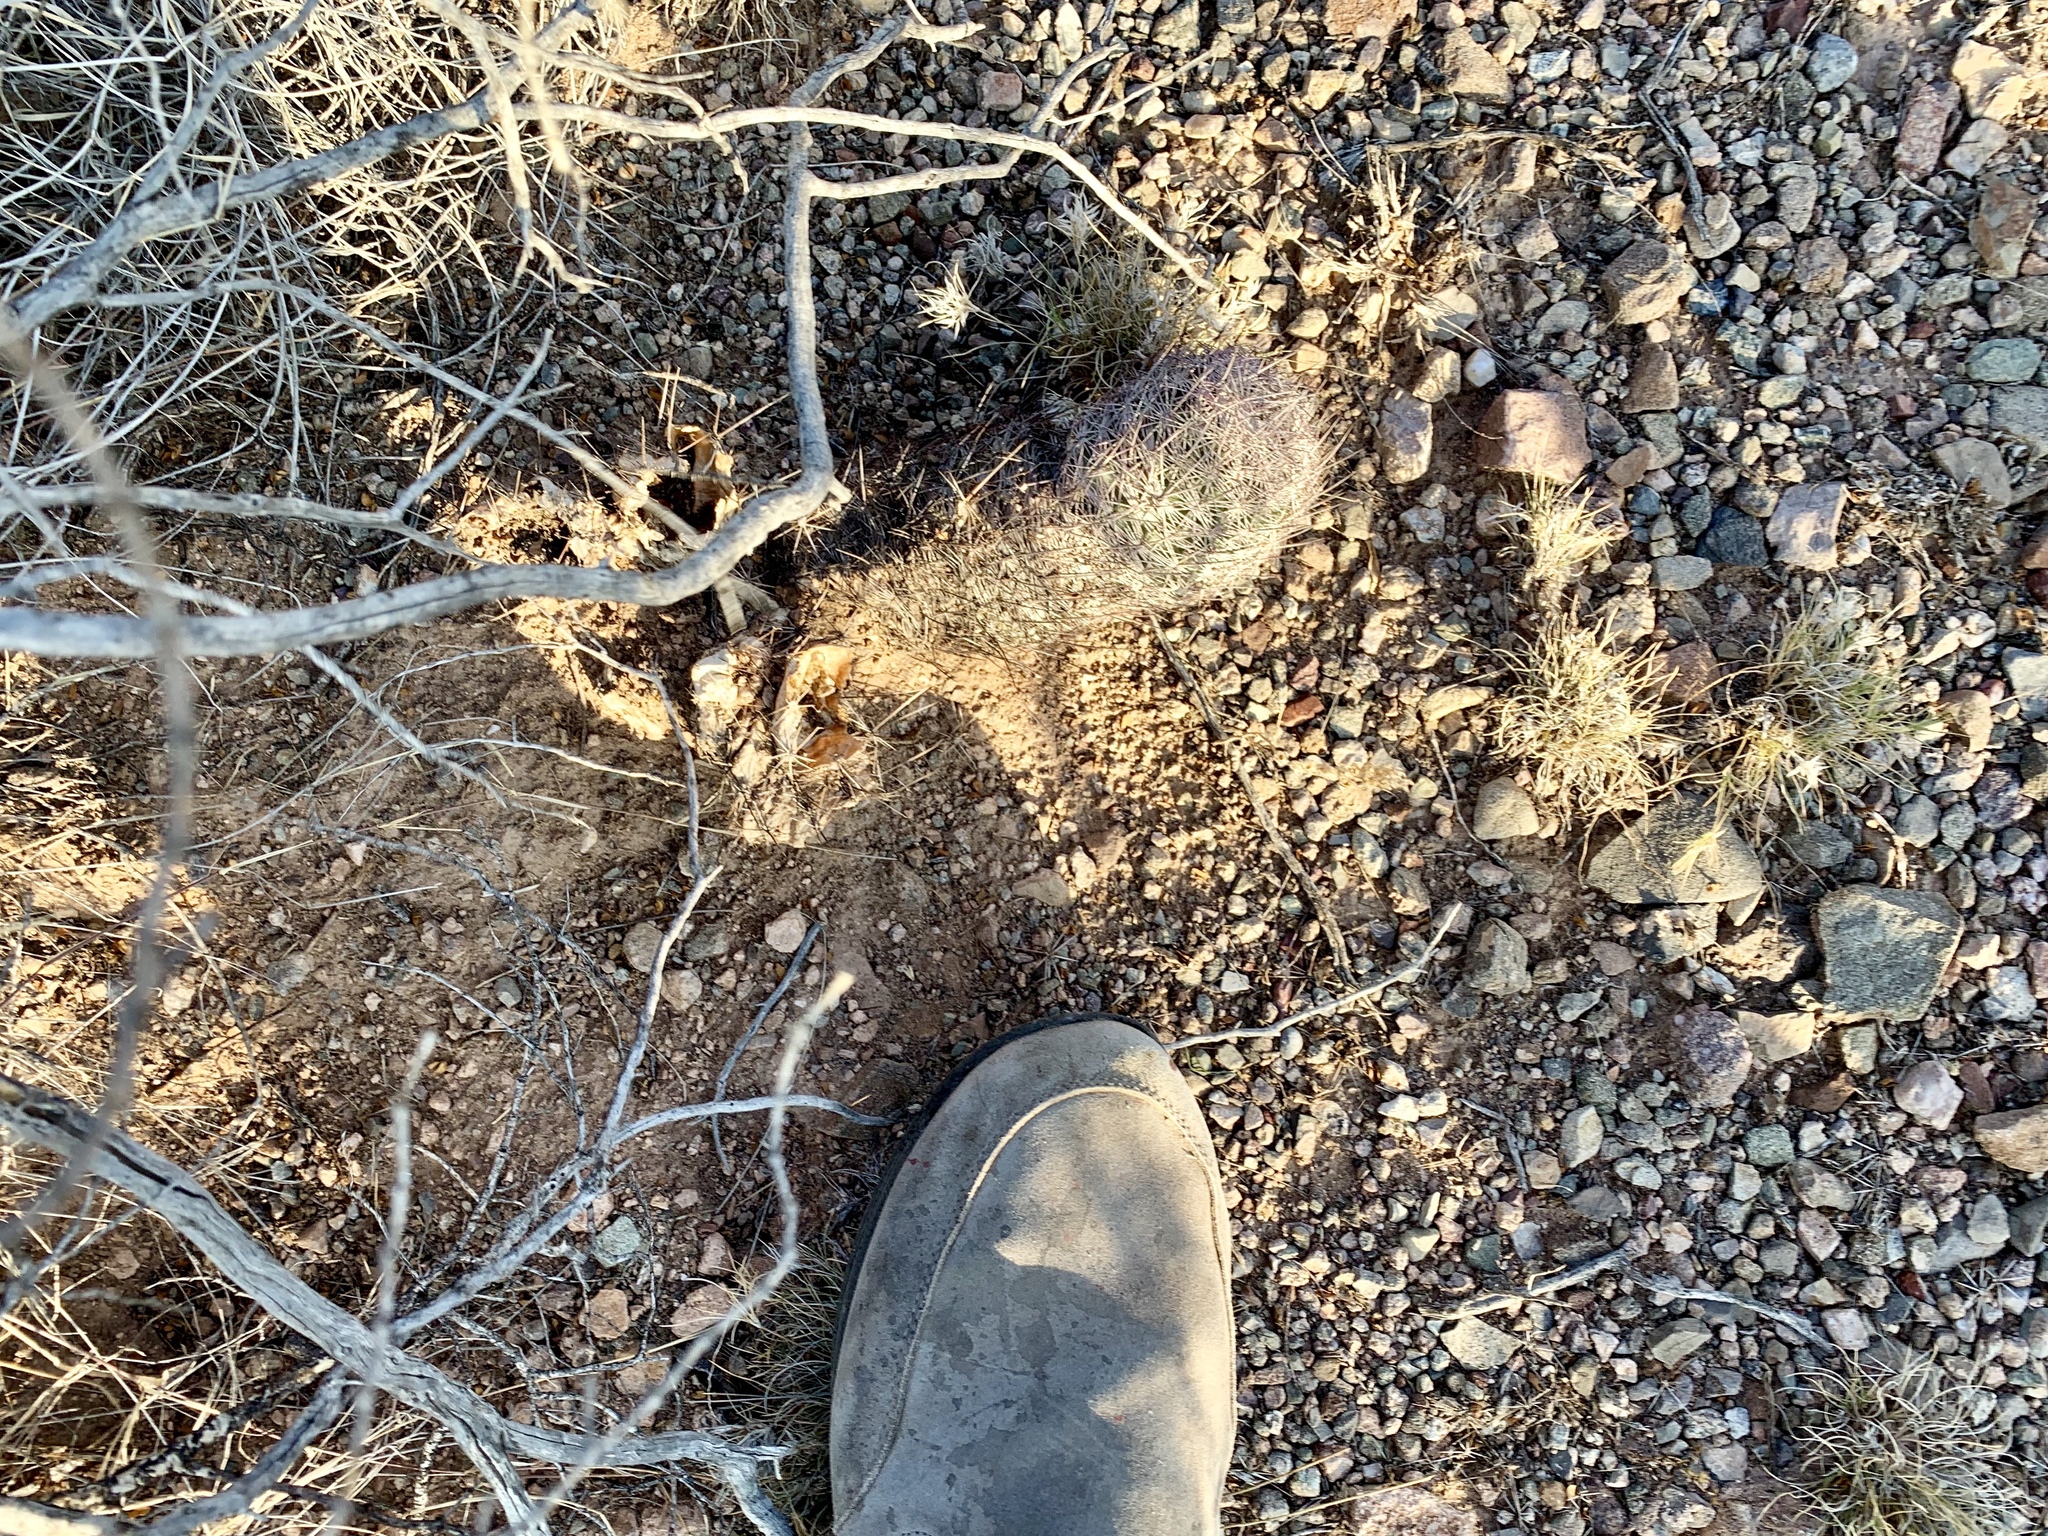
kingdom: Plantae
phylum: Tracheophyta
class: Magnoliopsida
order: Caryophyllales
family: Cactaceae
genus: Sclerocactus
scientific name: Sclerocactus johnsonii
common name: Eight-spine fishhook cactus
